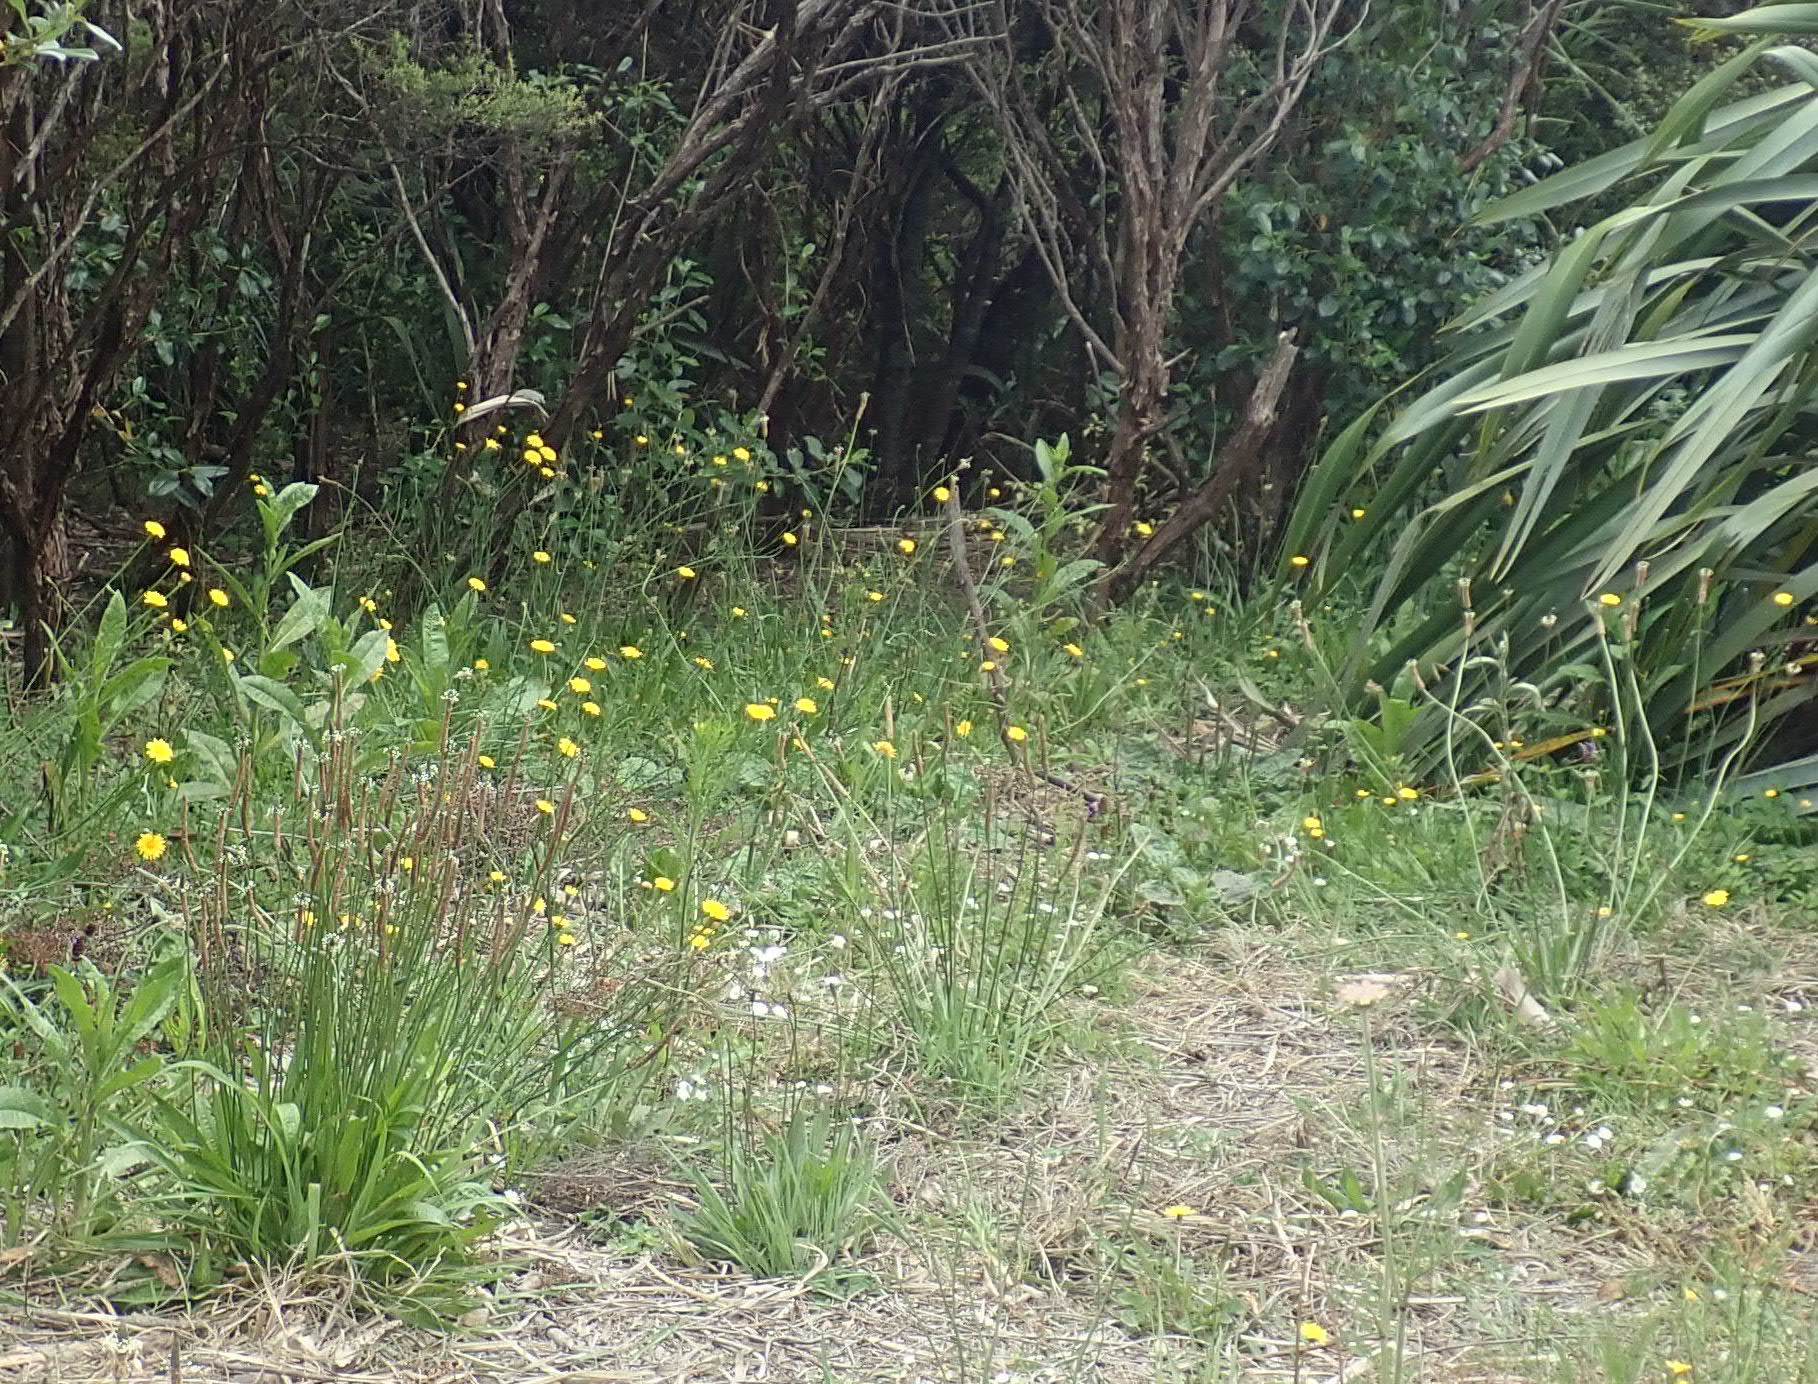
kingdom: Plantae
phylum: Tracheophyta
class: Magnoliopsida
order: Asterales
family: Asteraceae
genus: Helminthotheca
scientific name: Helminthotheca echioides
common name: Ox-tongue
